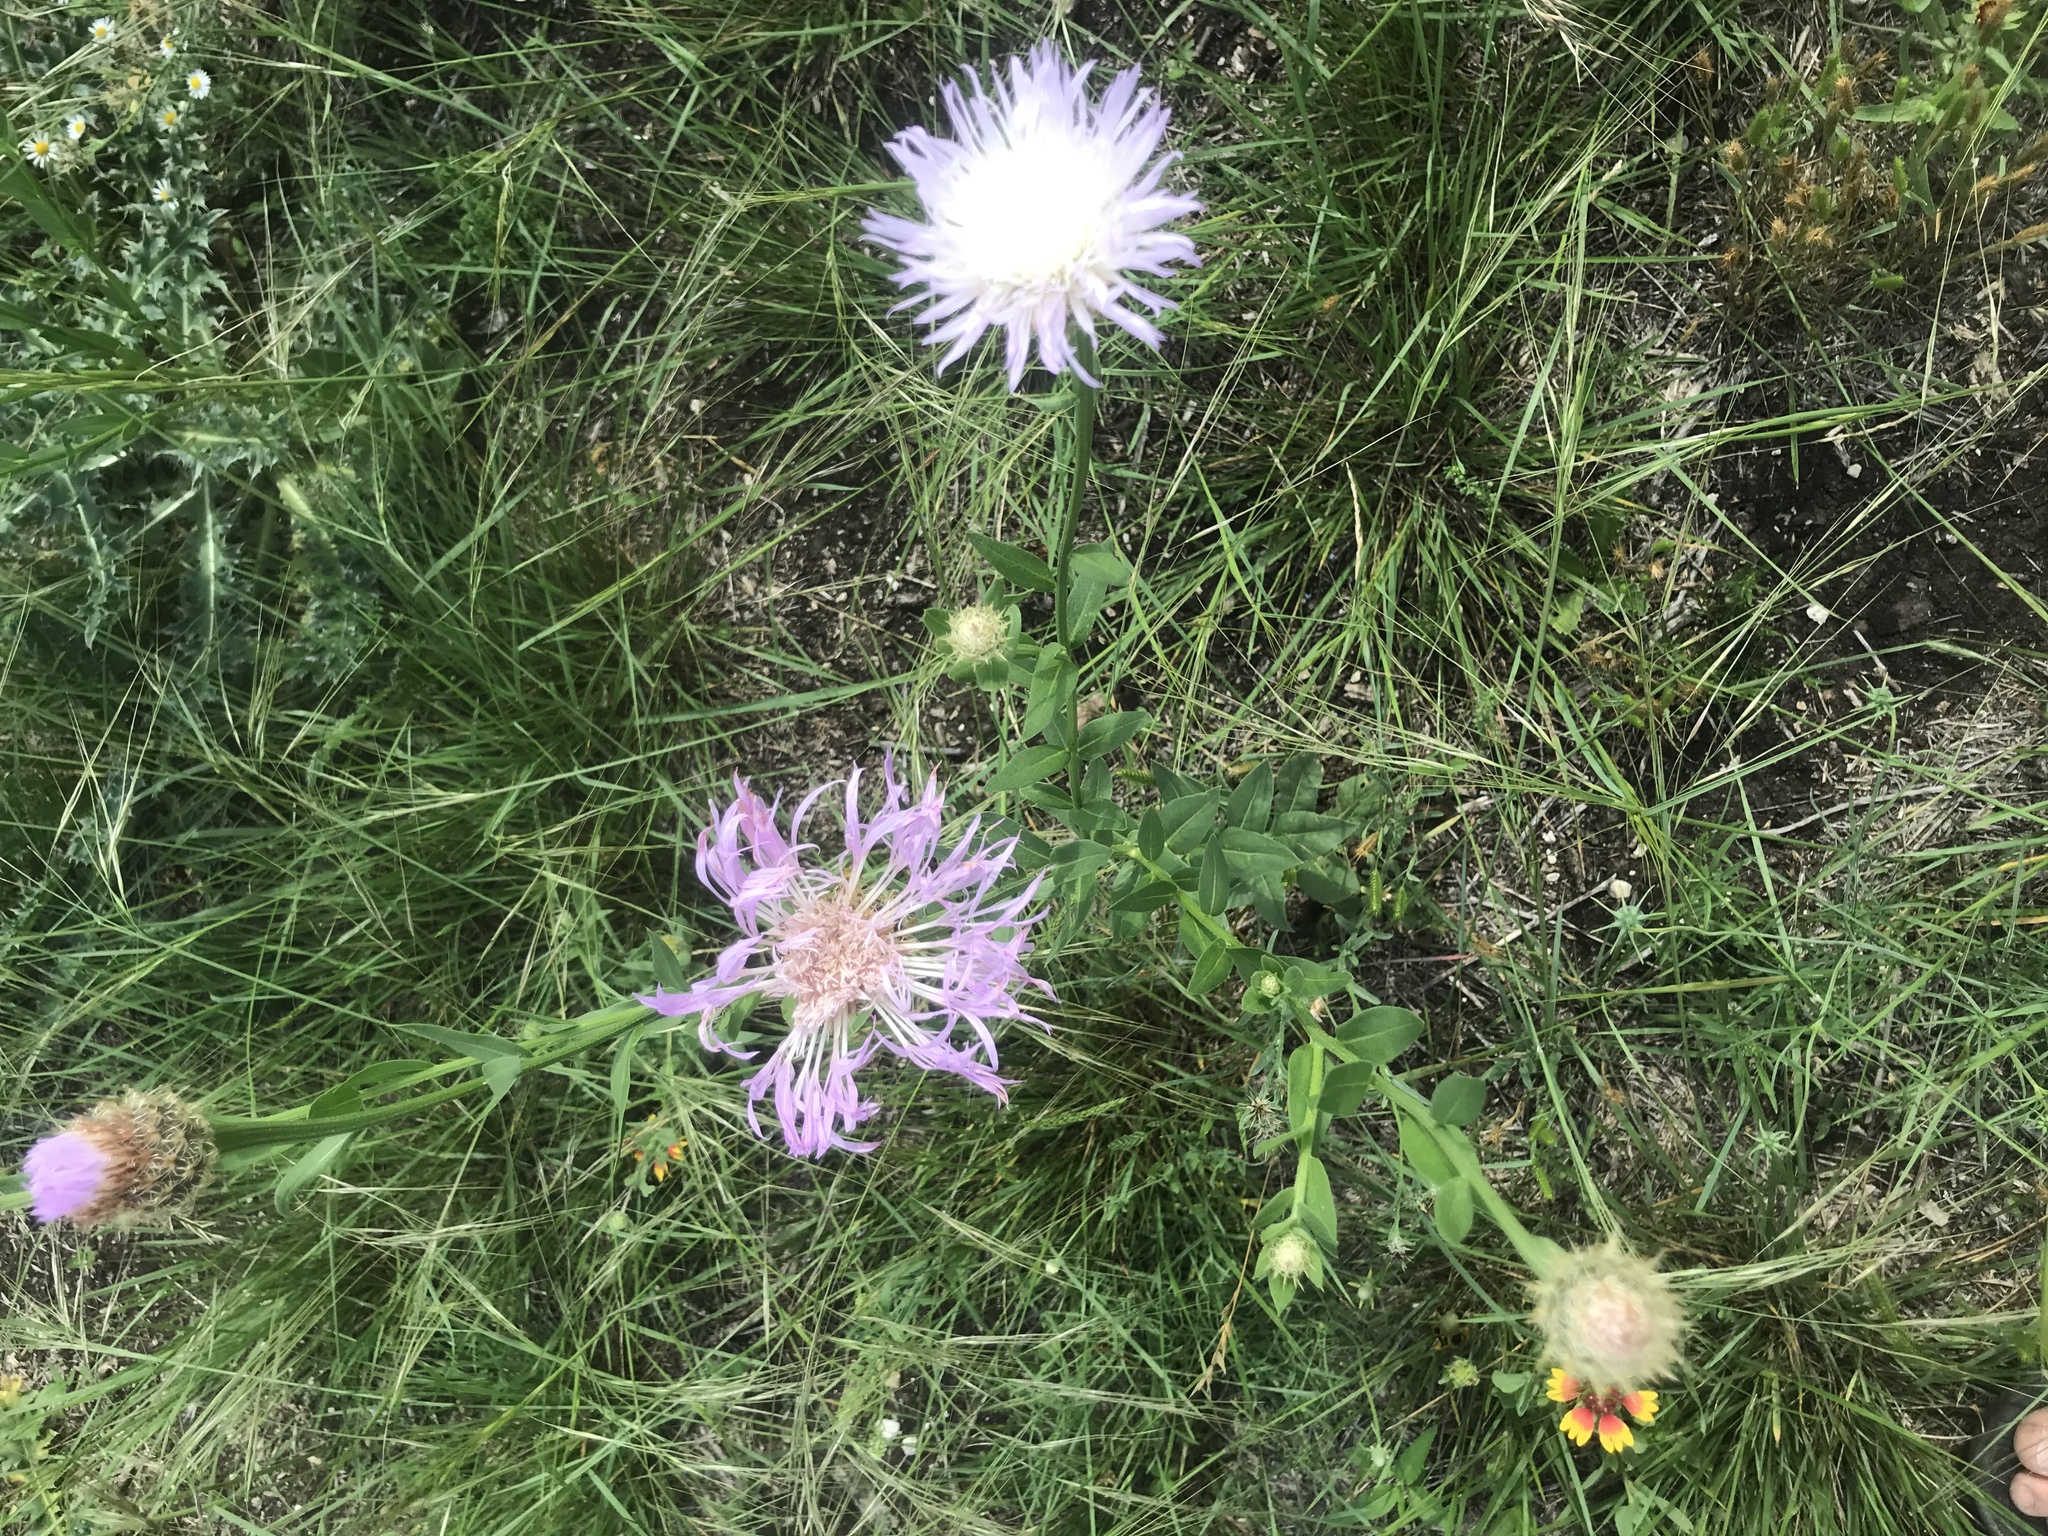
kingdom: Plantae
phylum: Tracheophyta
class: Magnoliopsida
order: Asterales
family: Asteraceae
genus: Plectocephalus
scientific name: Plectocephalus americanus
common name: American basket-flower
